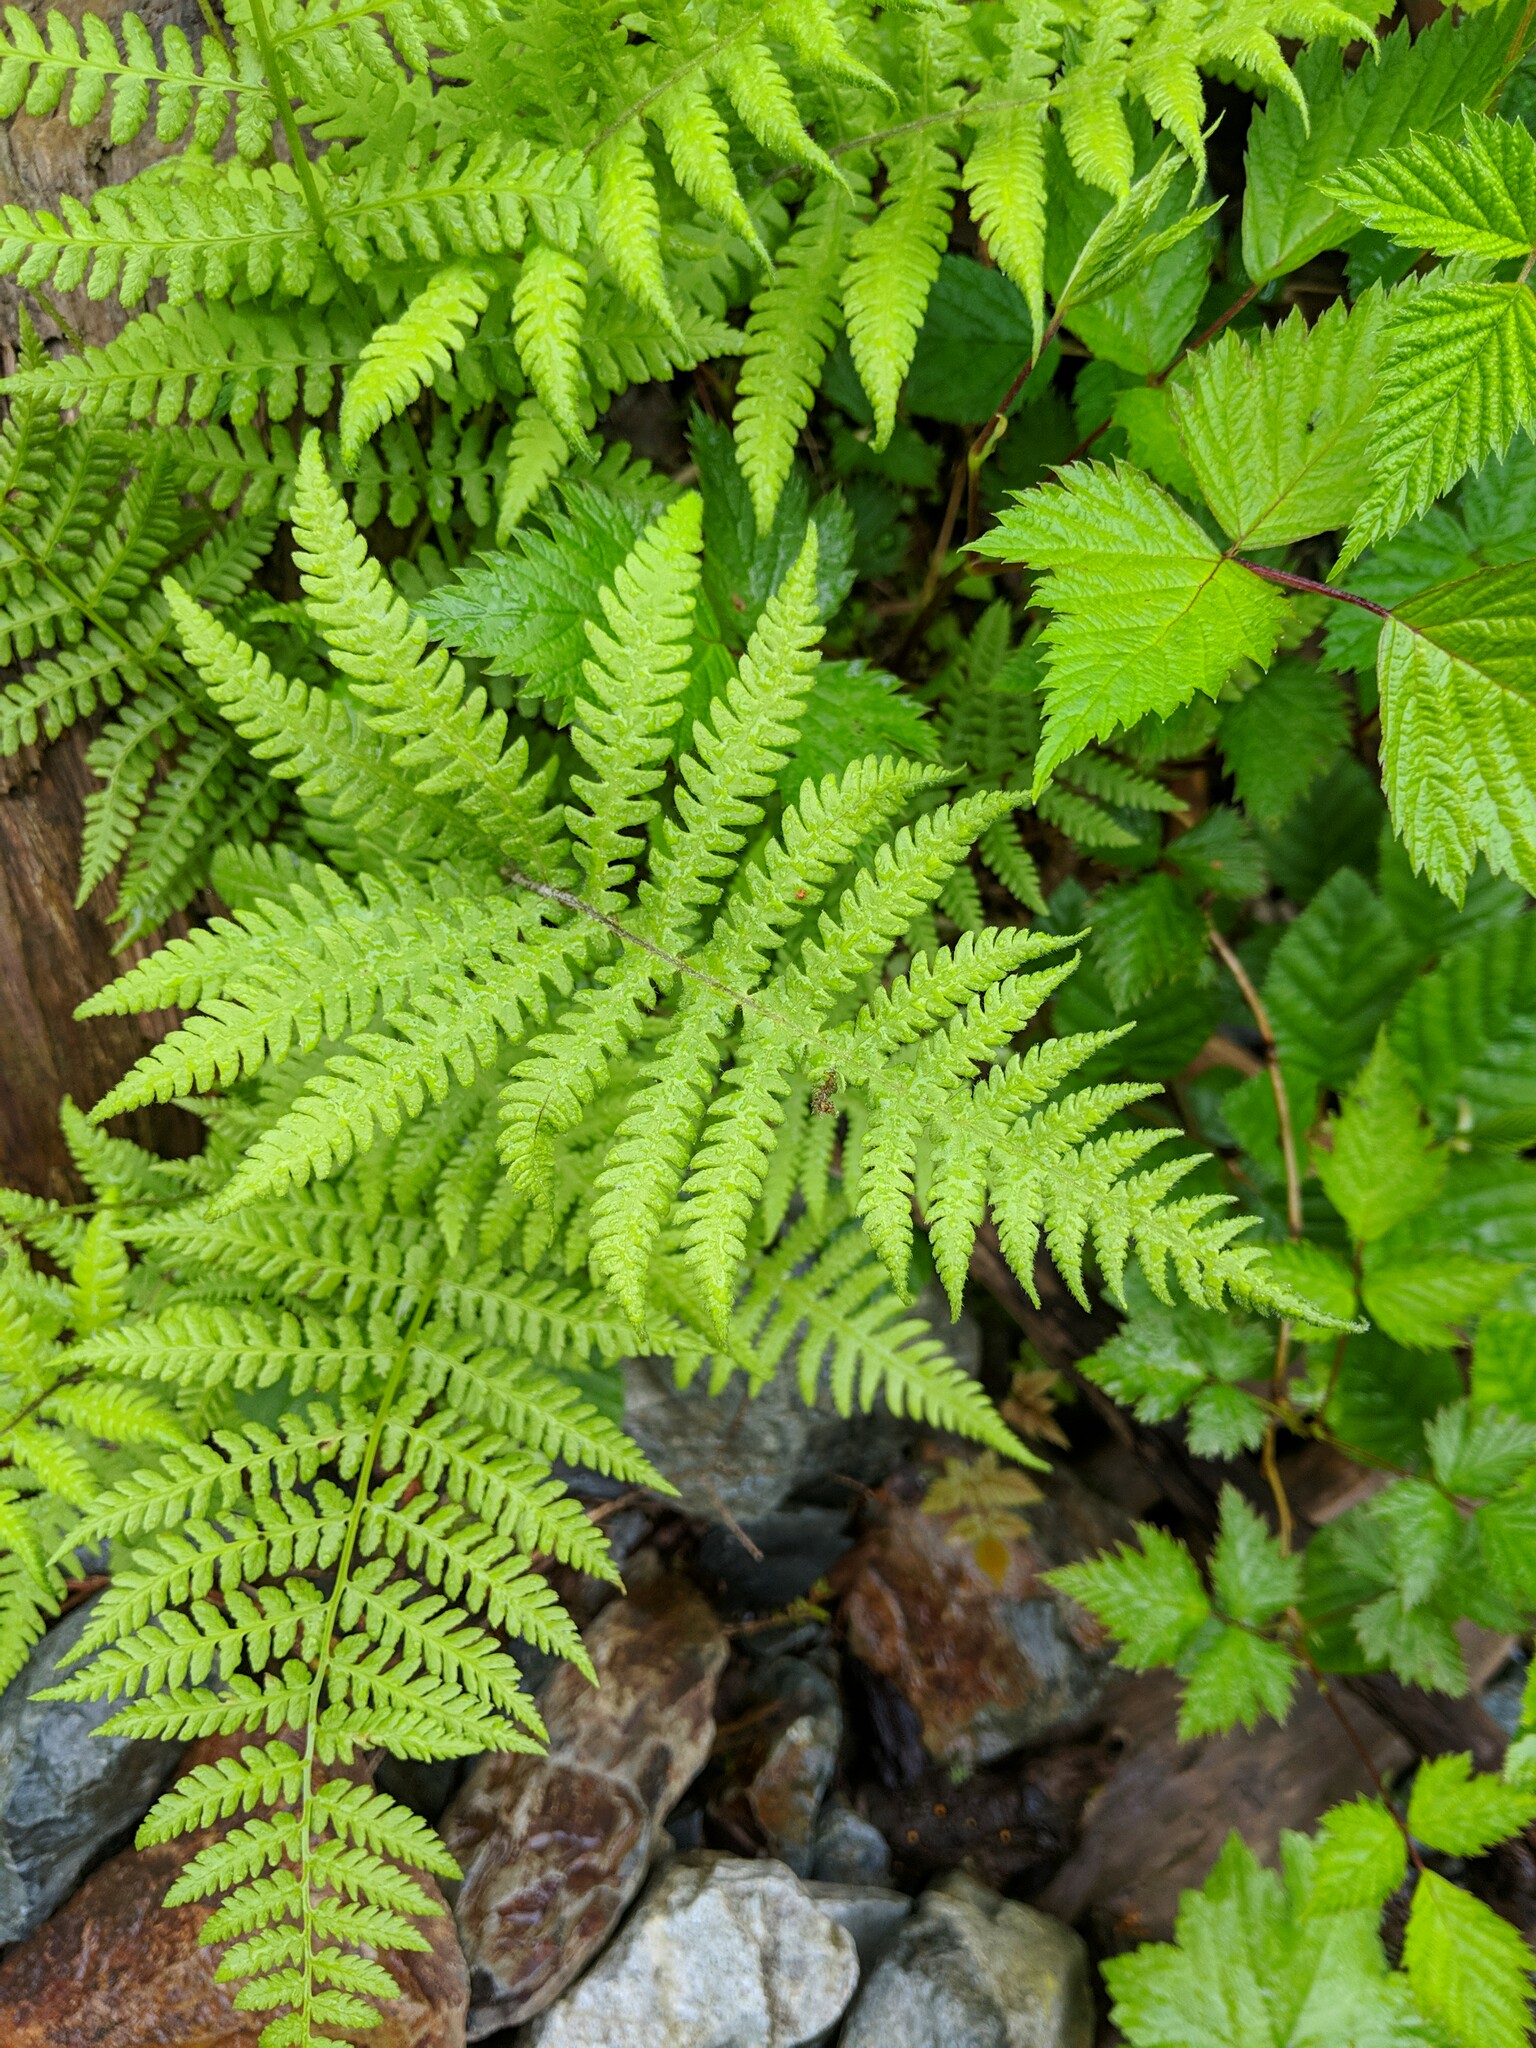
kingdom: Plantae
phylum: Tracheophyta
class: Polypodiopsida
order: Polypodiales
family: Thelypteridaceae
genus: Phegopteris
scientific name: Phegopteris connectilis
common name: Beech fern
